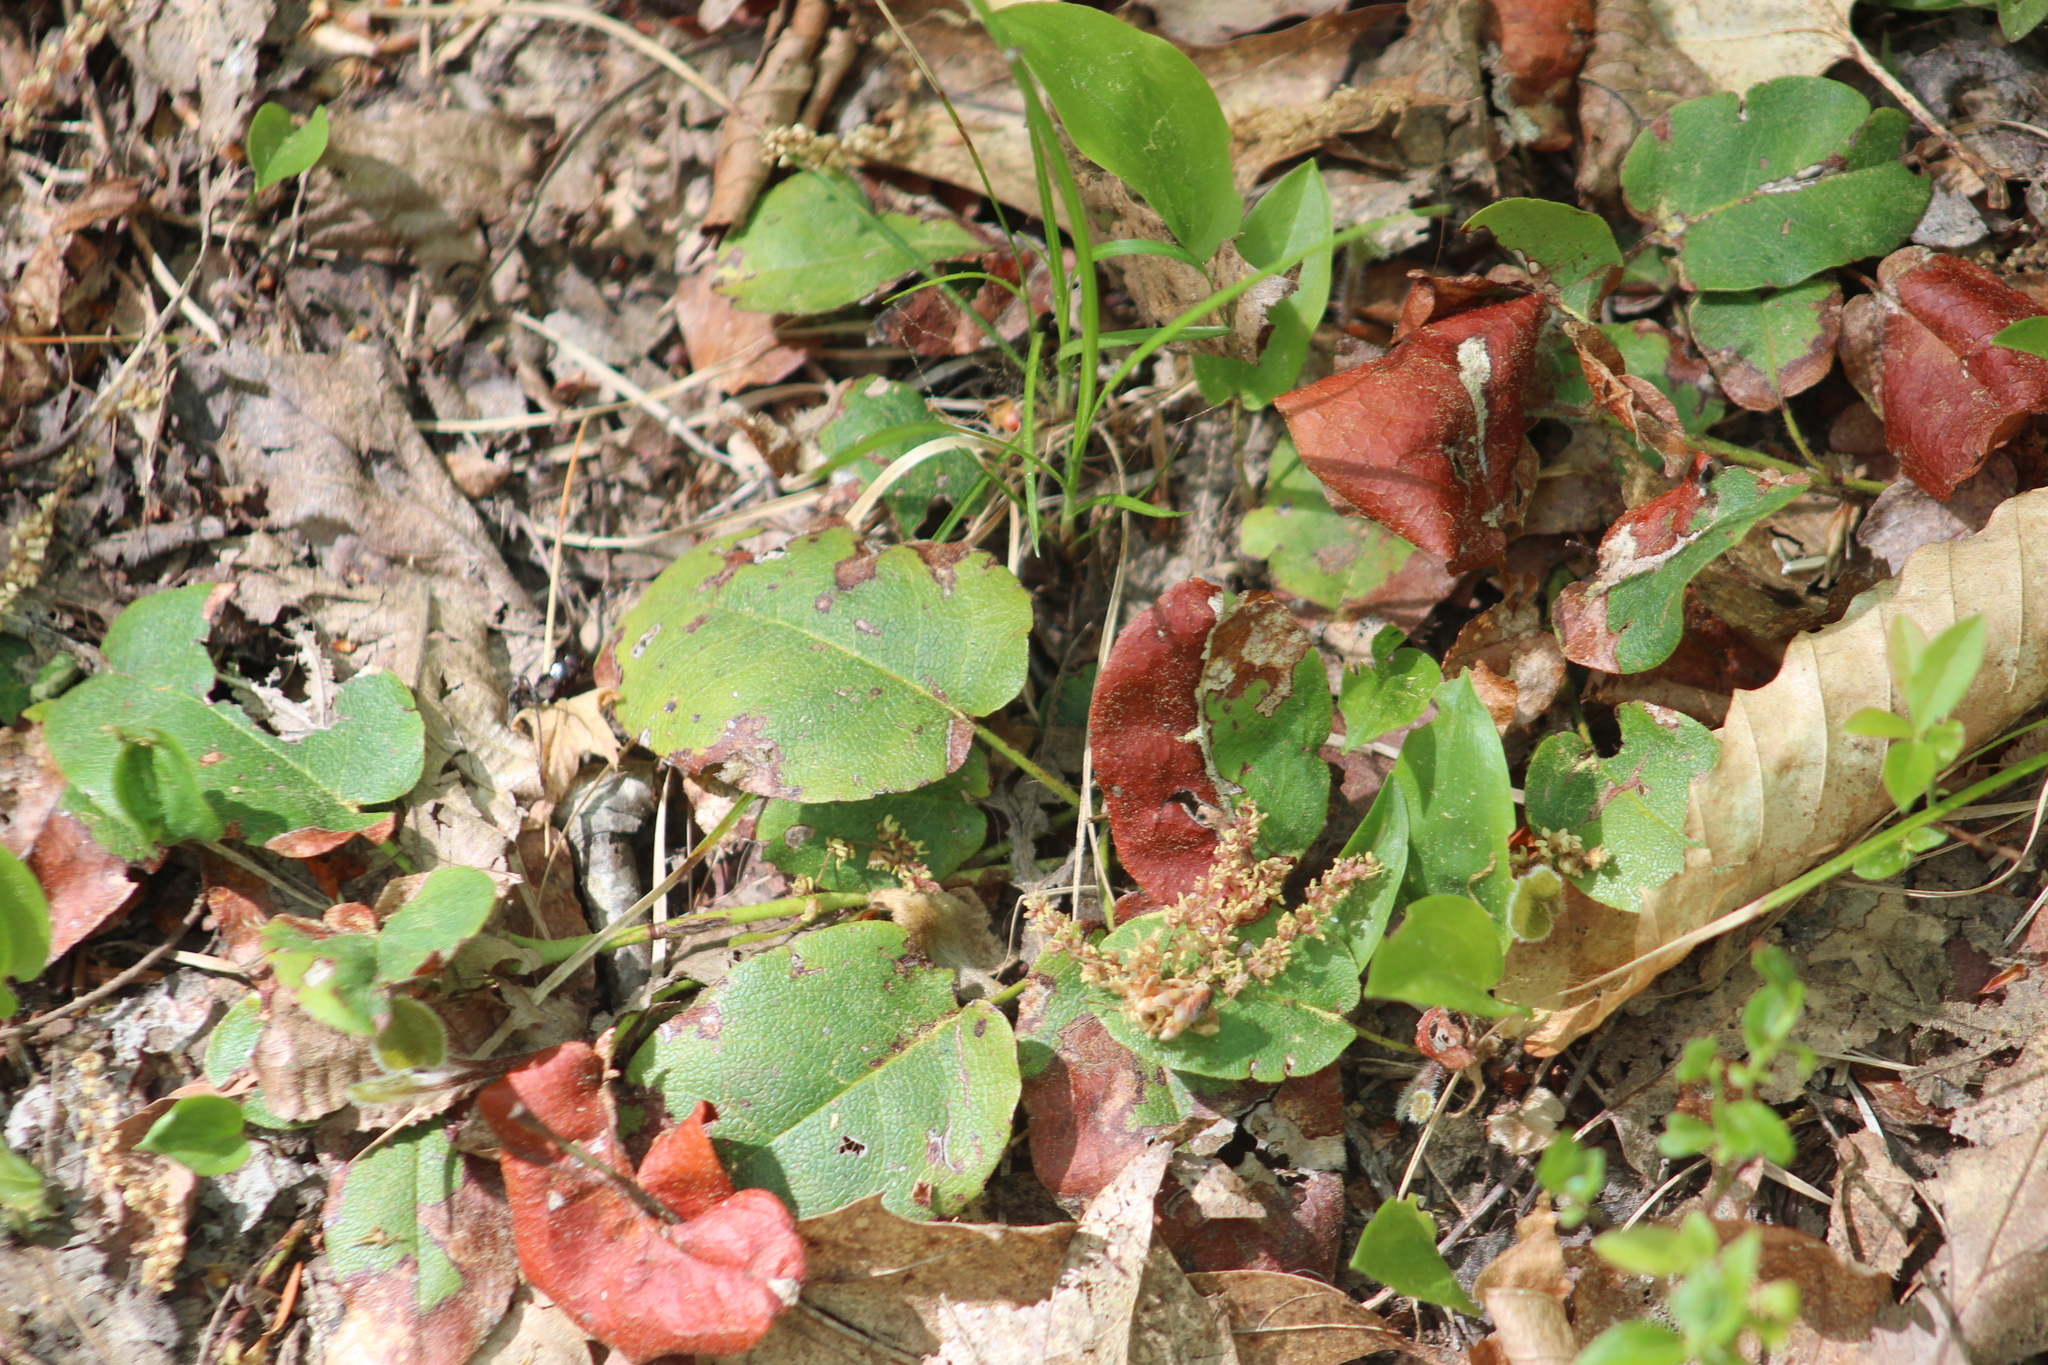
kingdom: Plantae
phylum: Tracheophyta
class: Magnoliopsida
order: Ericales
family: Ericaceae
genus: Epigaea
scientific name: Epigaea repens
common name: Gravelroot
